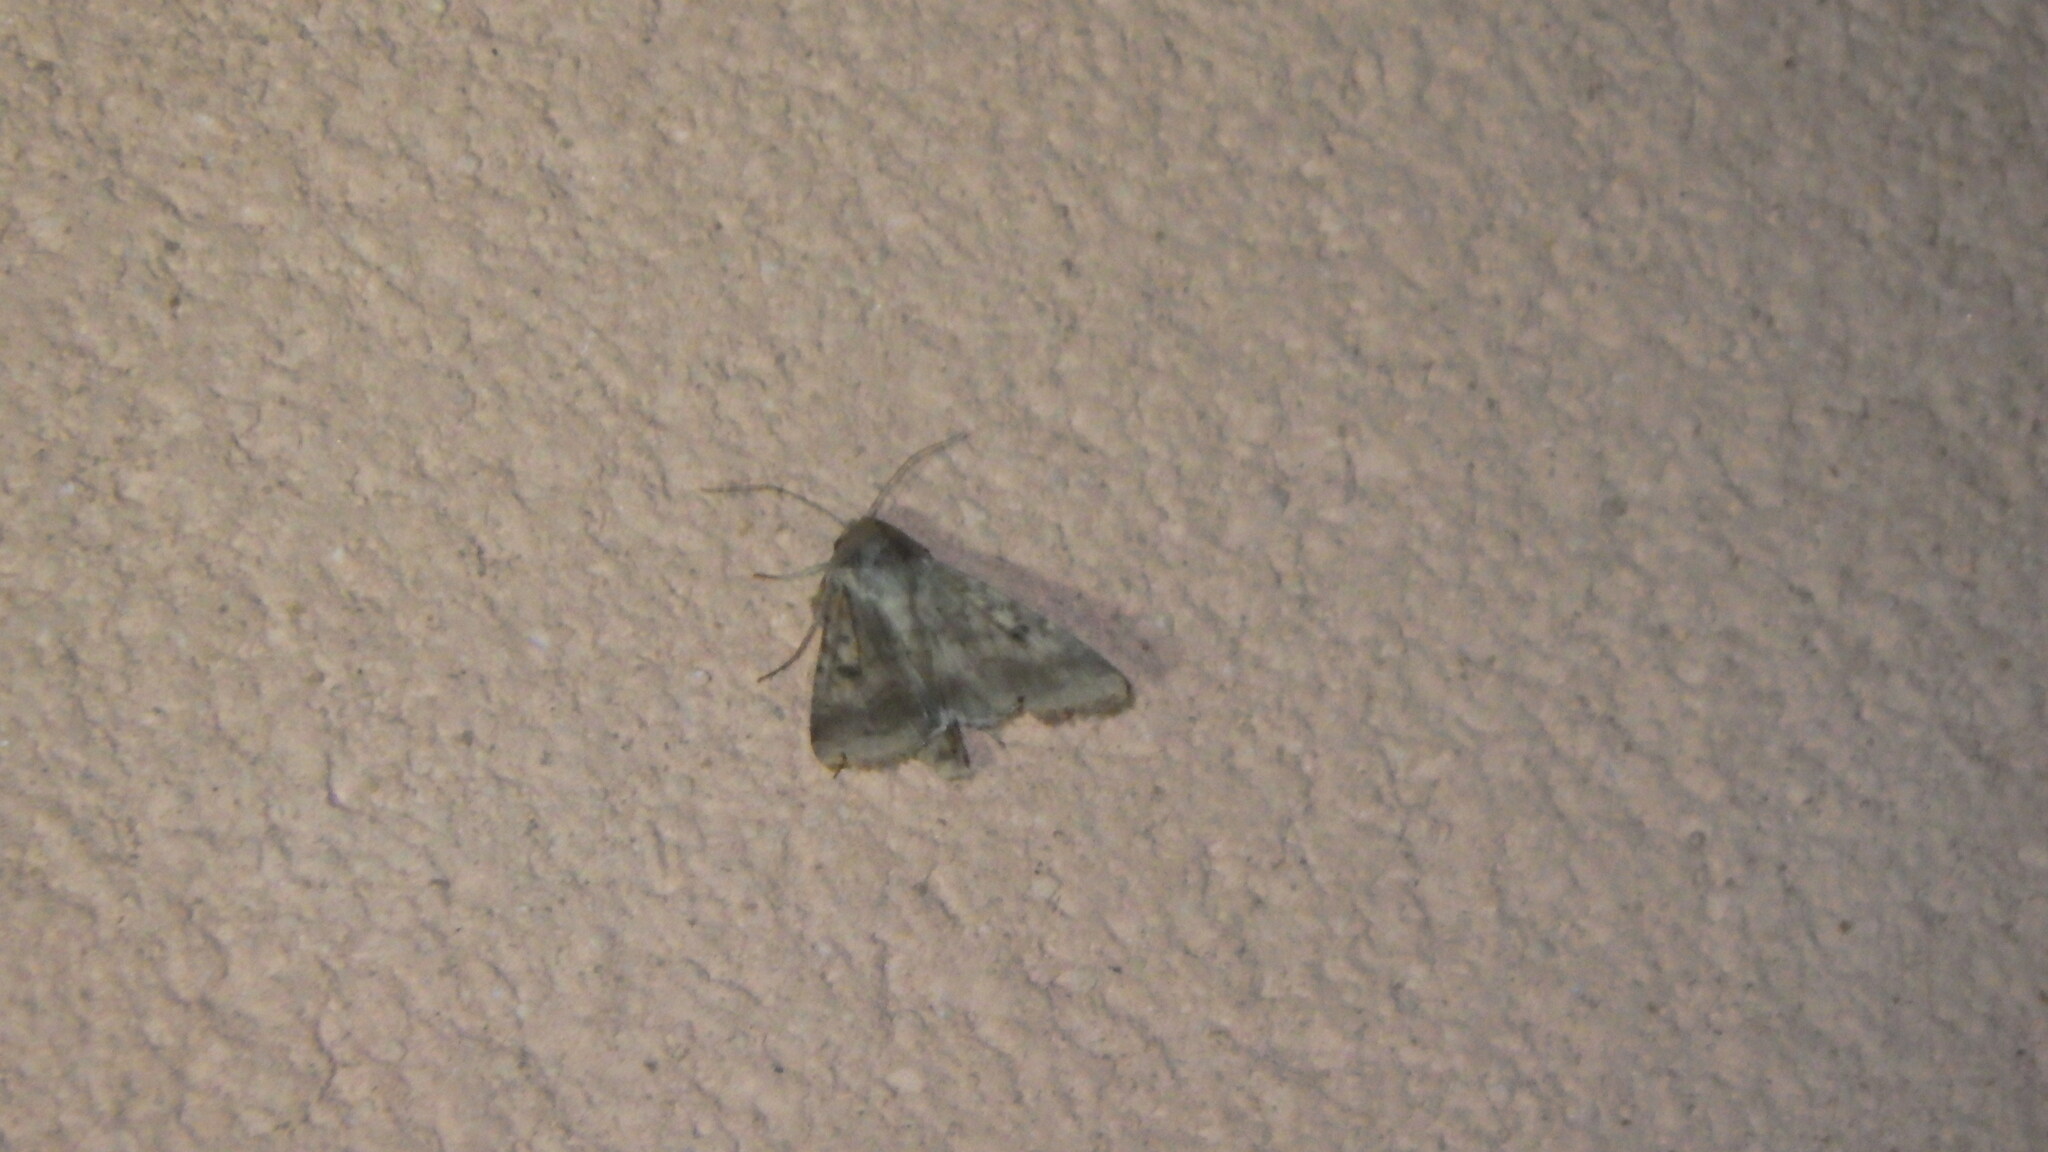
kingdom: Animalia
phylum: Arthropoda
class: Insecta
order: Lepidoptera
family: Noctuidae
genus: Helicoverpa
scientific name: Helicoverpa armigera
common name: Cotton bollworm
